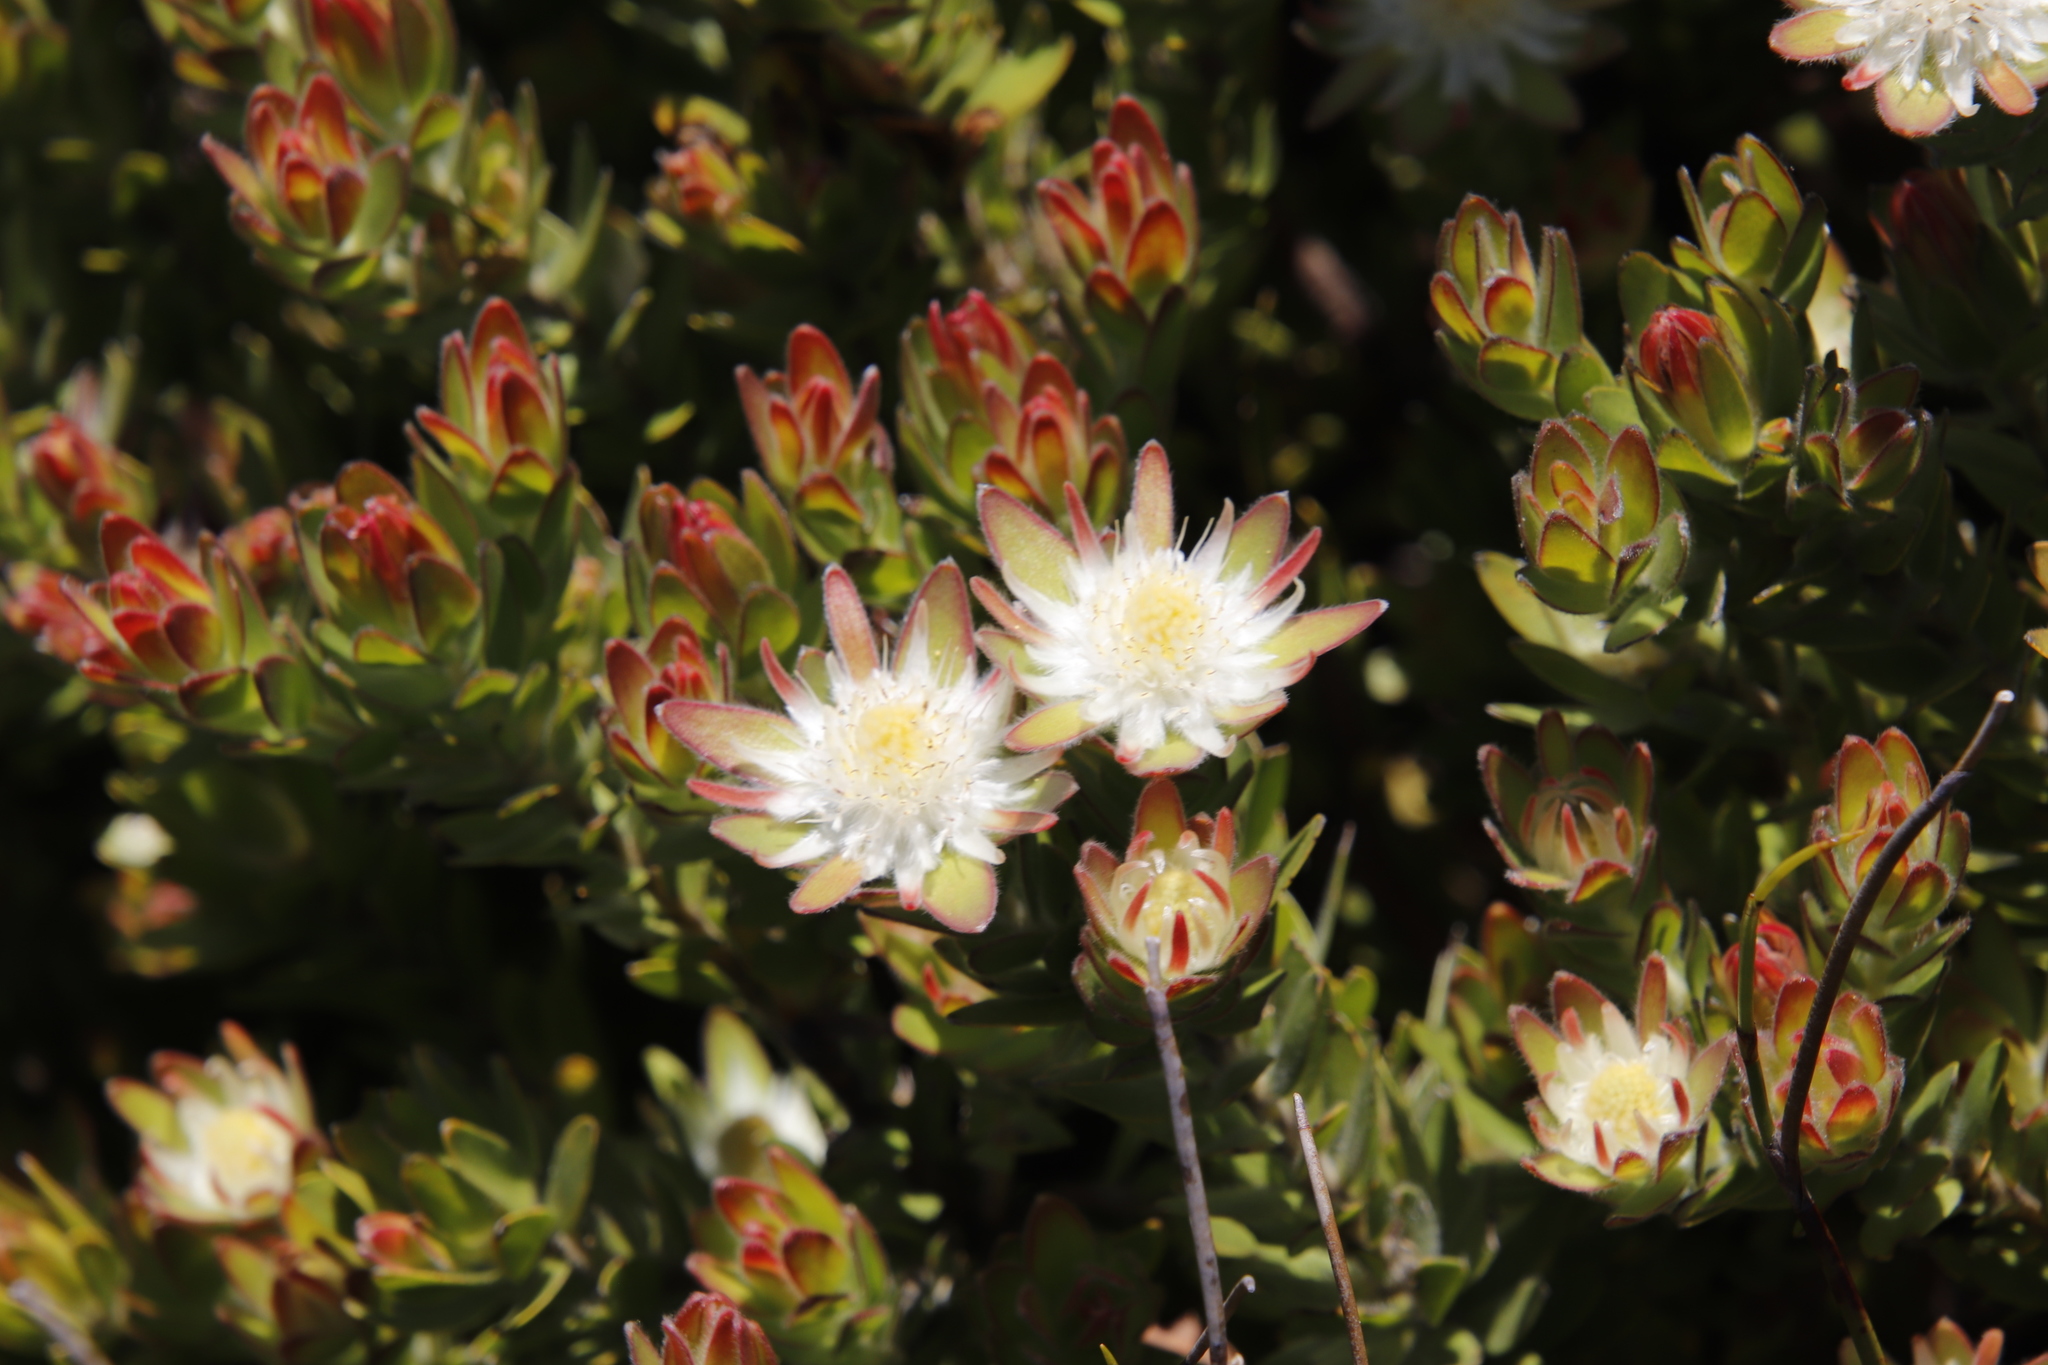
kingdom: Plantae
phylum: Tracheophyta
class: Magnoliopsida
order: Proteales
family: Proteaceae
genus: Diastella
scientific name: Diastella thymelaeoides
